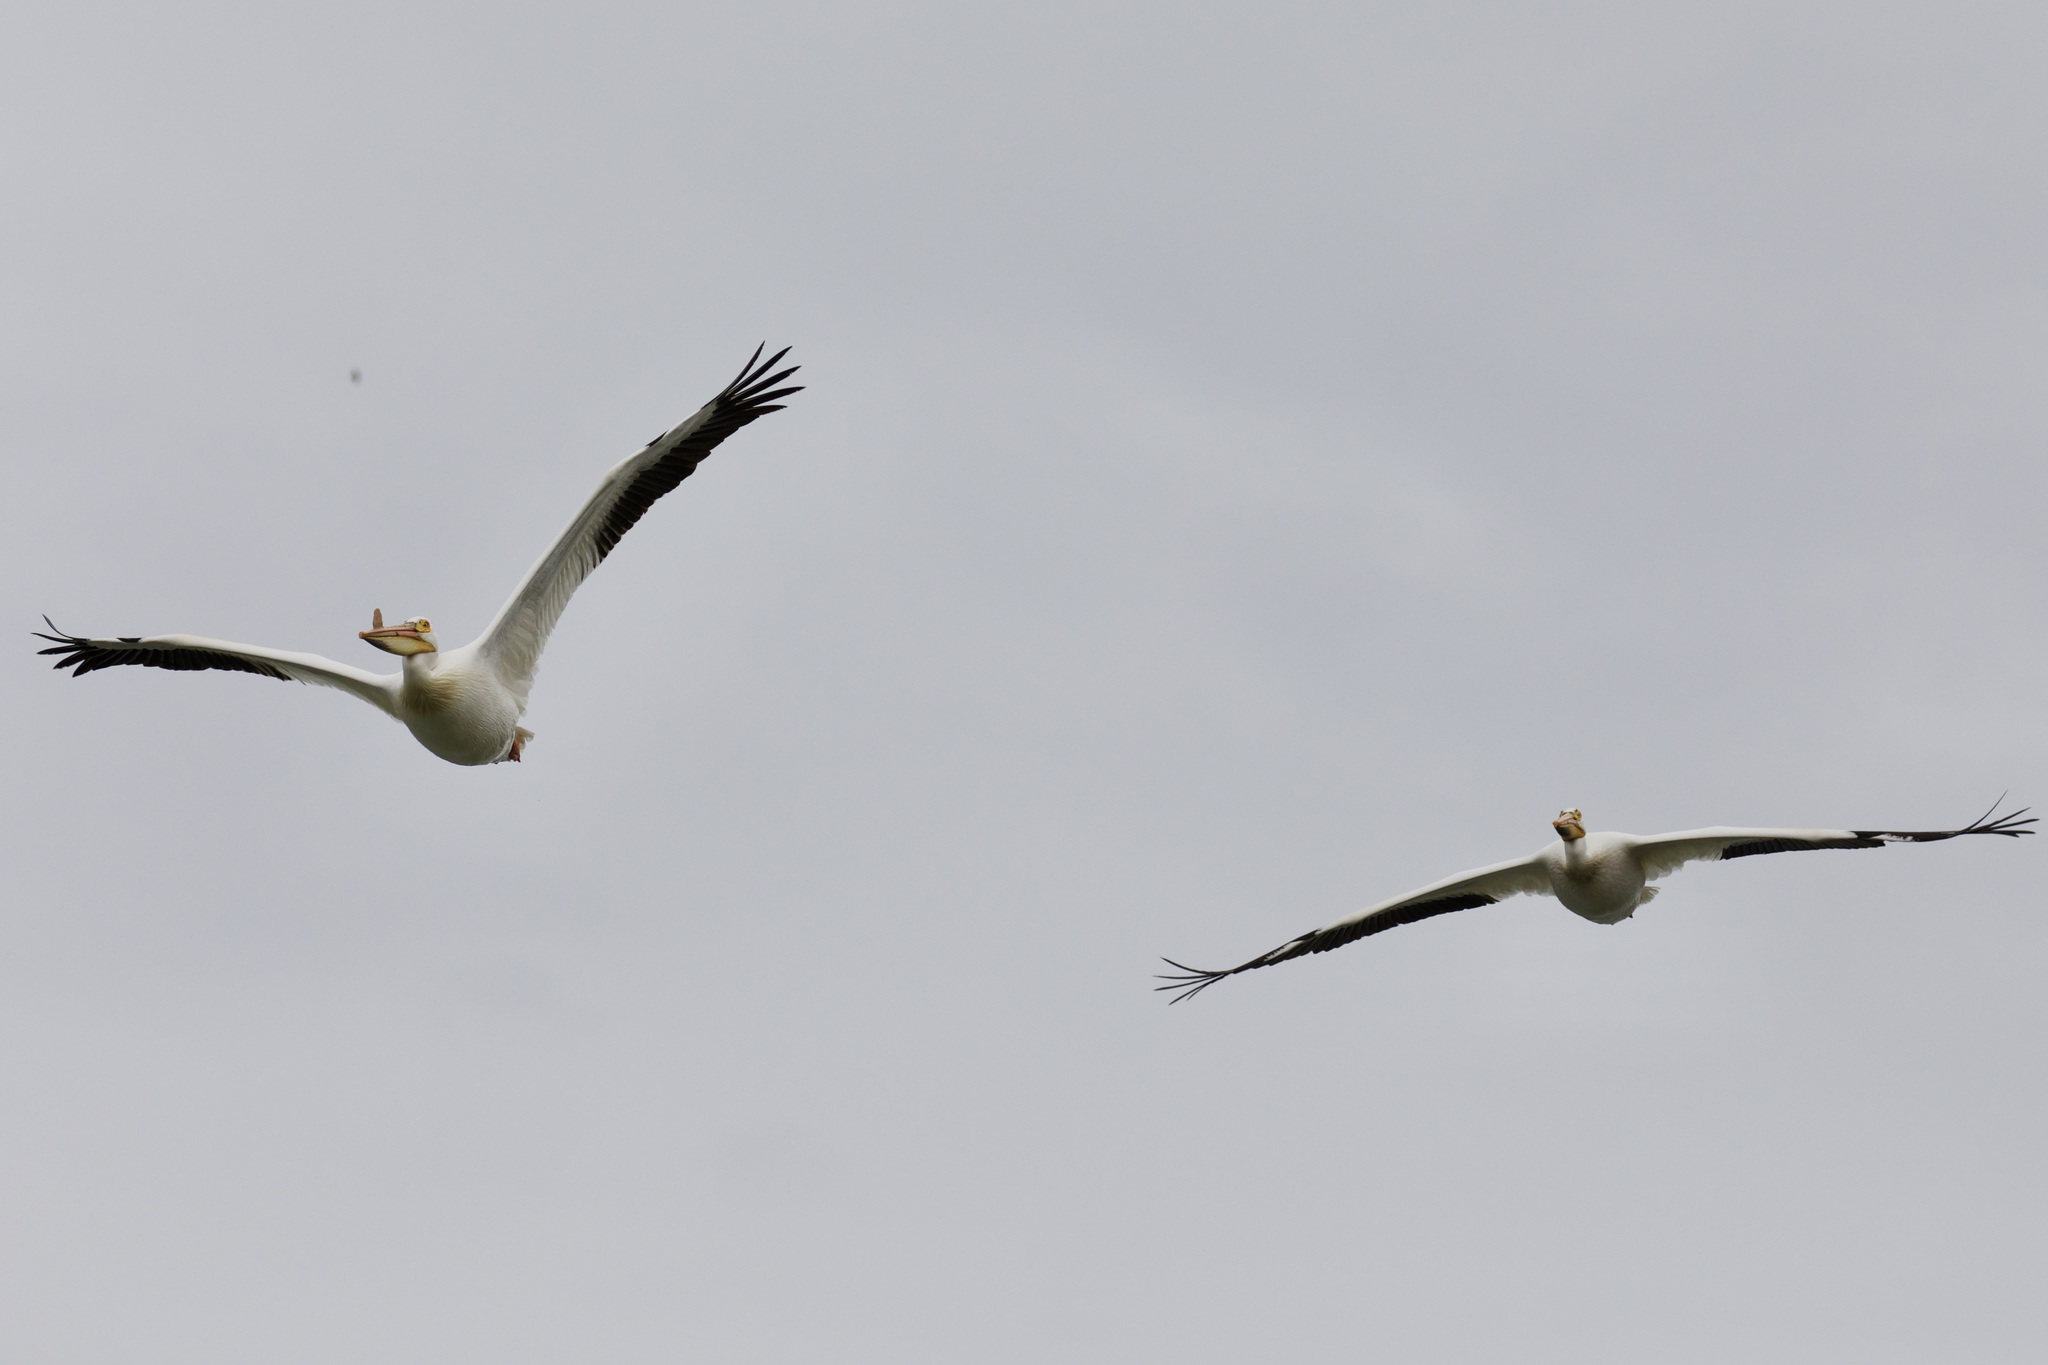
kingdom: Animalia
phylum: Chordata
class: Aves
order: Pelecaniformes
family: Pelecanidae
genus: Pelecanus
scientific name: Pelecanus erythrorhynchos
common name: American white pelican
